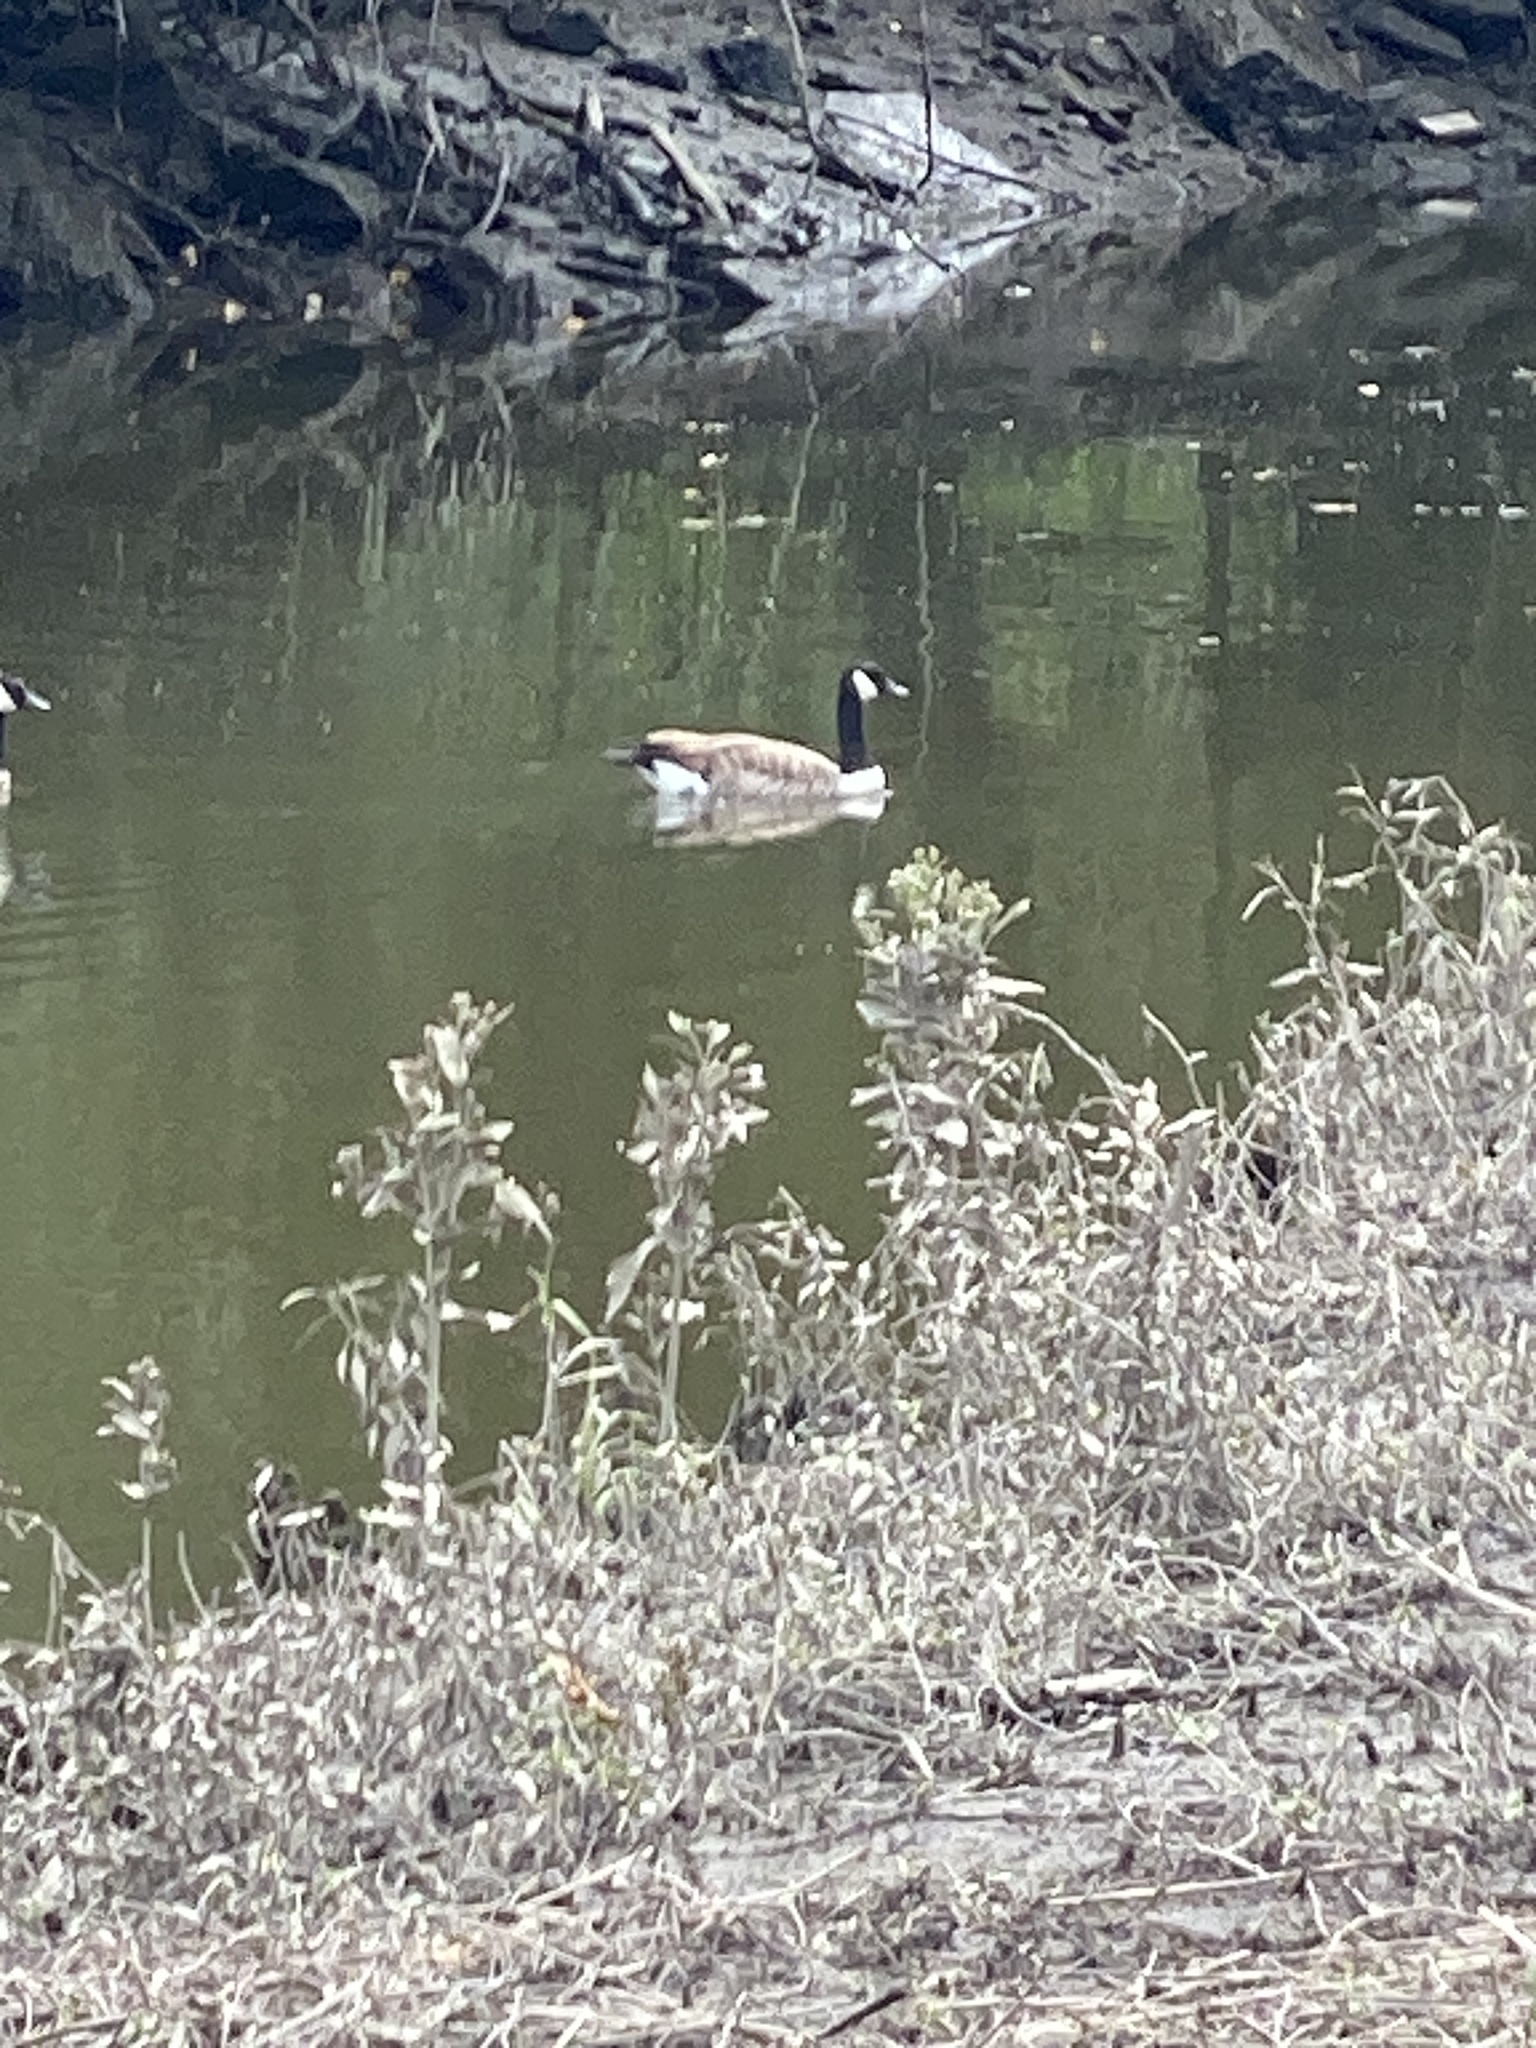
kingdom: Animalia
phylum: Chordata
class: Aves
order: Anseriformes
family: Anatidae
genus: Branta
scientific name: Branta canadensis
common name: Canada goose
